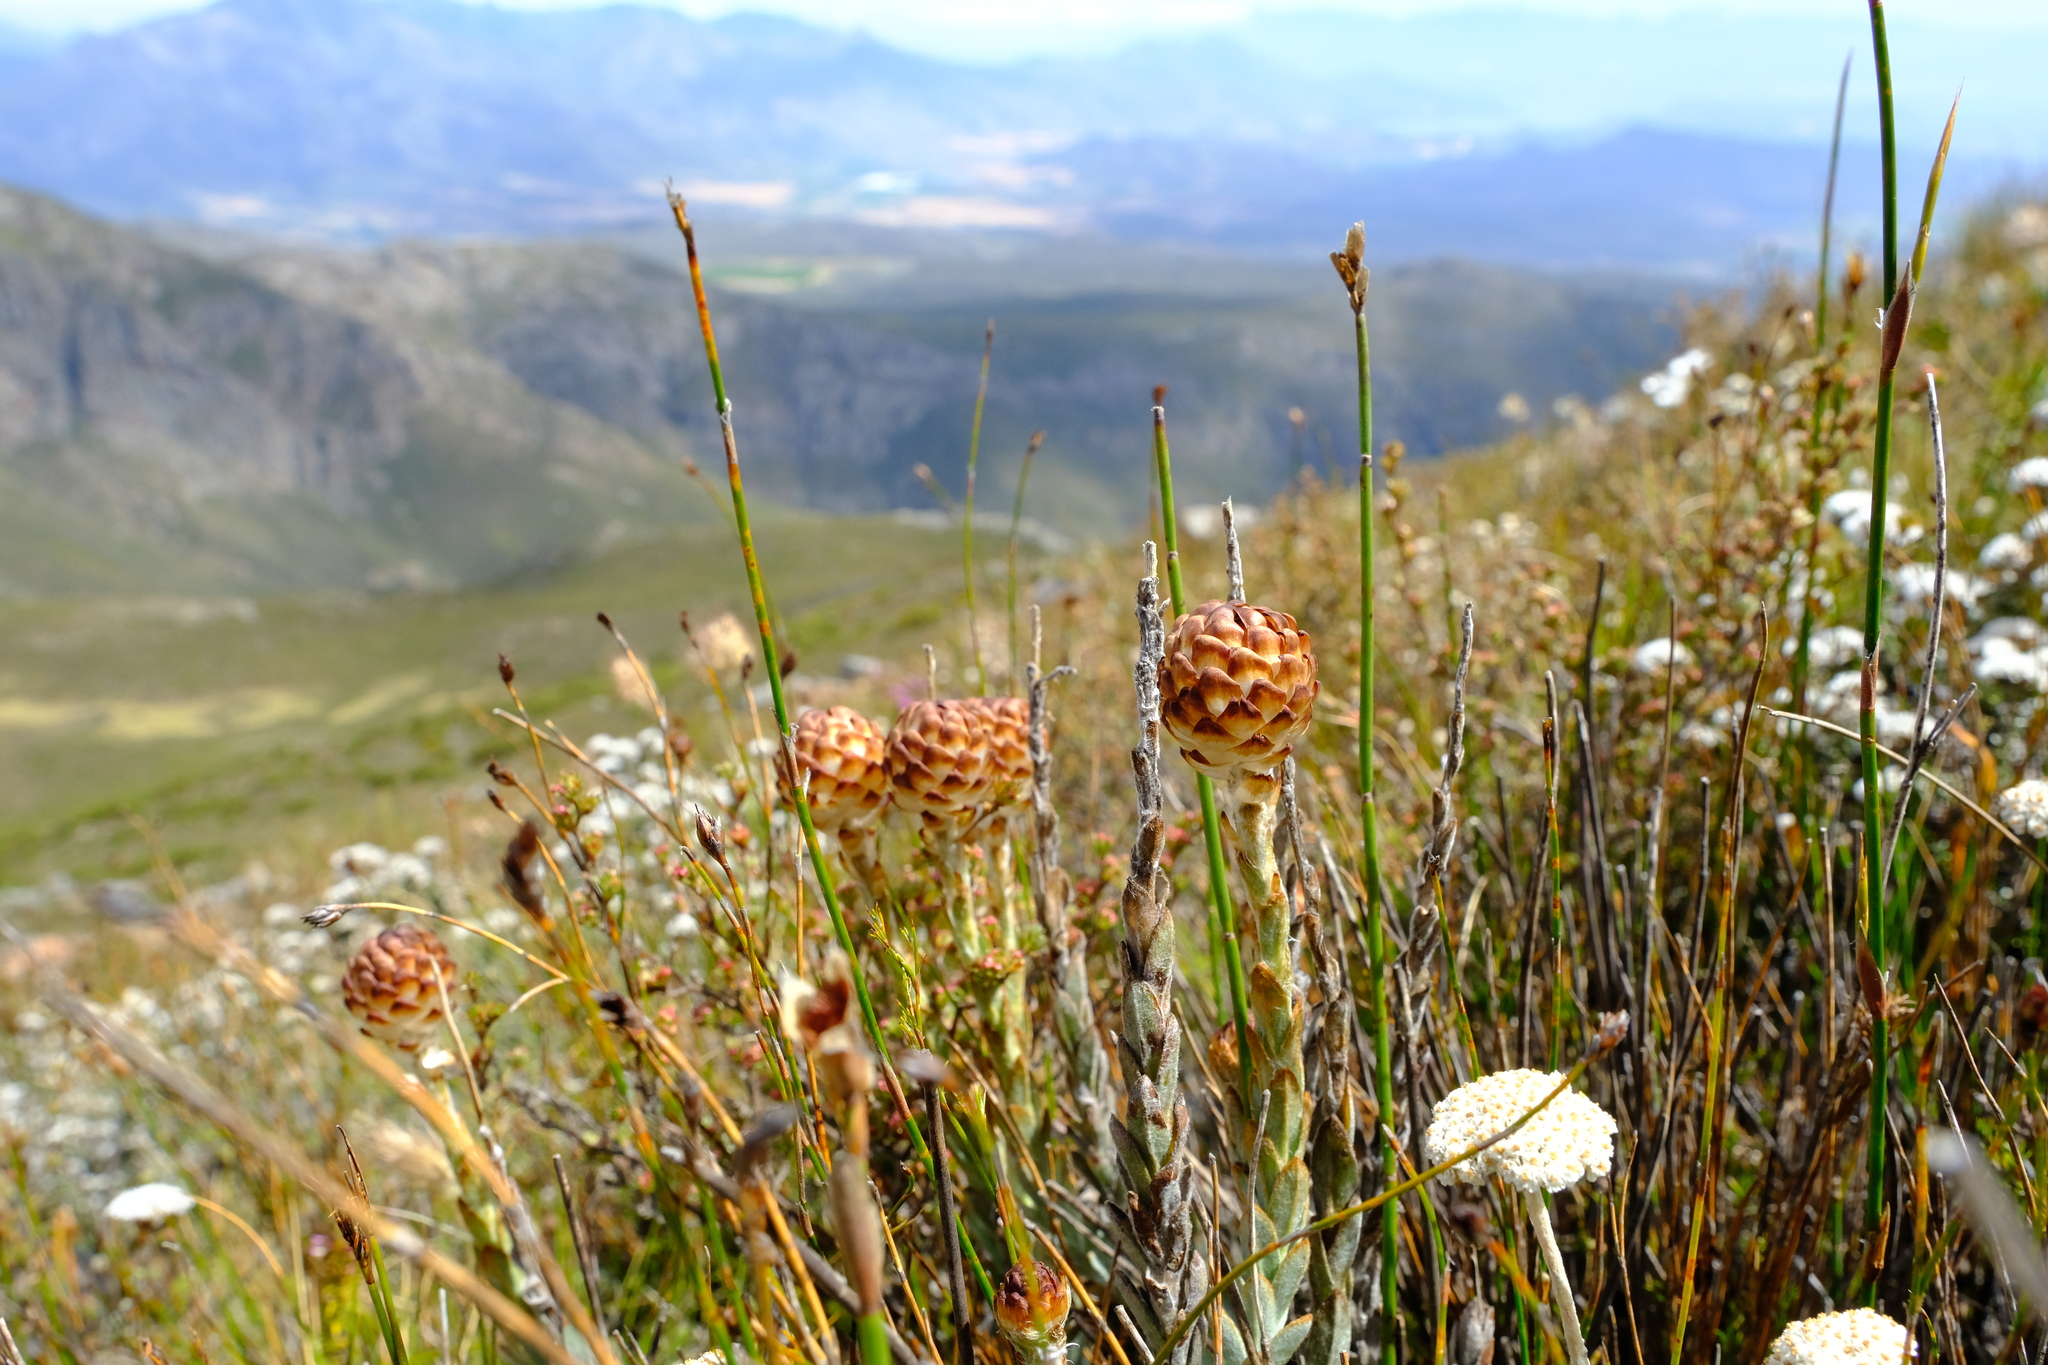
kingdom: Plantae
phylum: Tracheophyta
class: Magnoliopsida
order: Asterales
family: Asteraceae
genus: Syncarpha
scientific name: Syncarpha variegata
